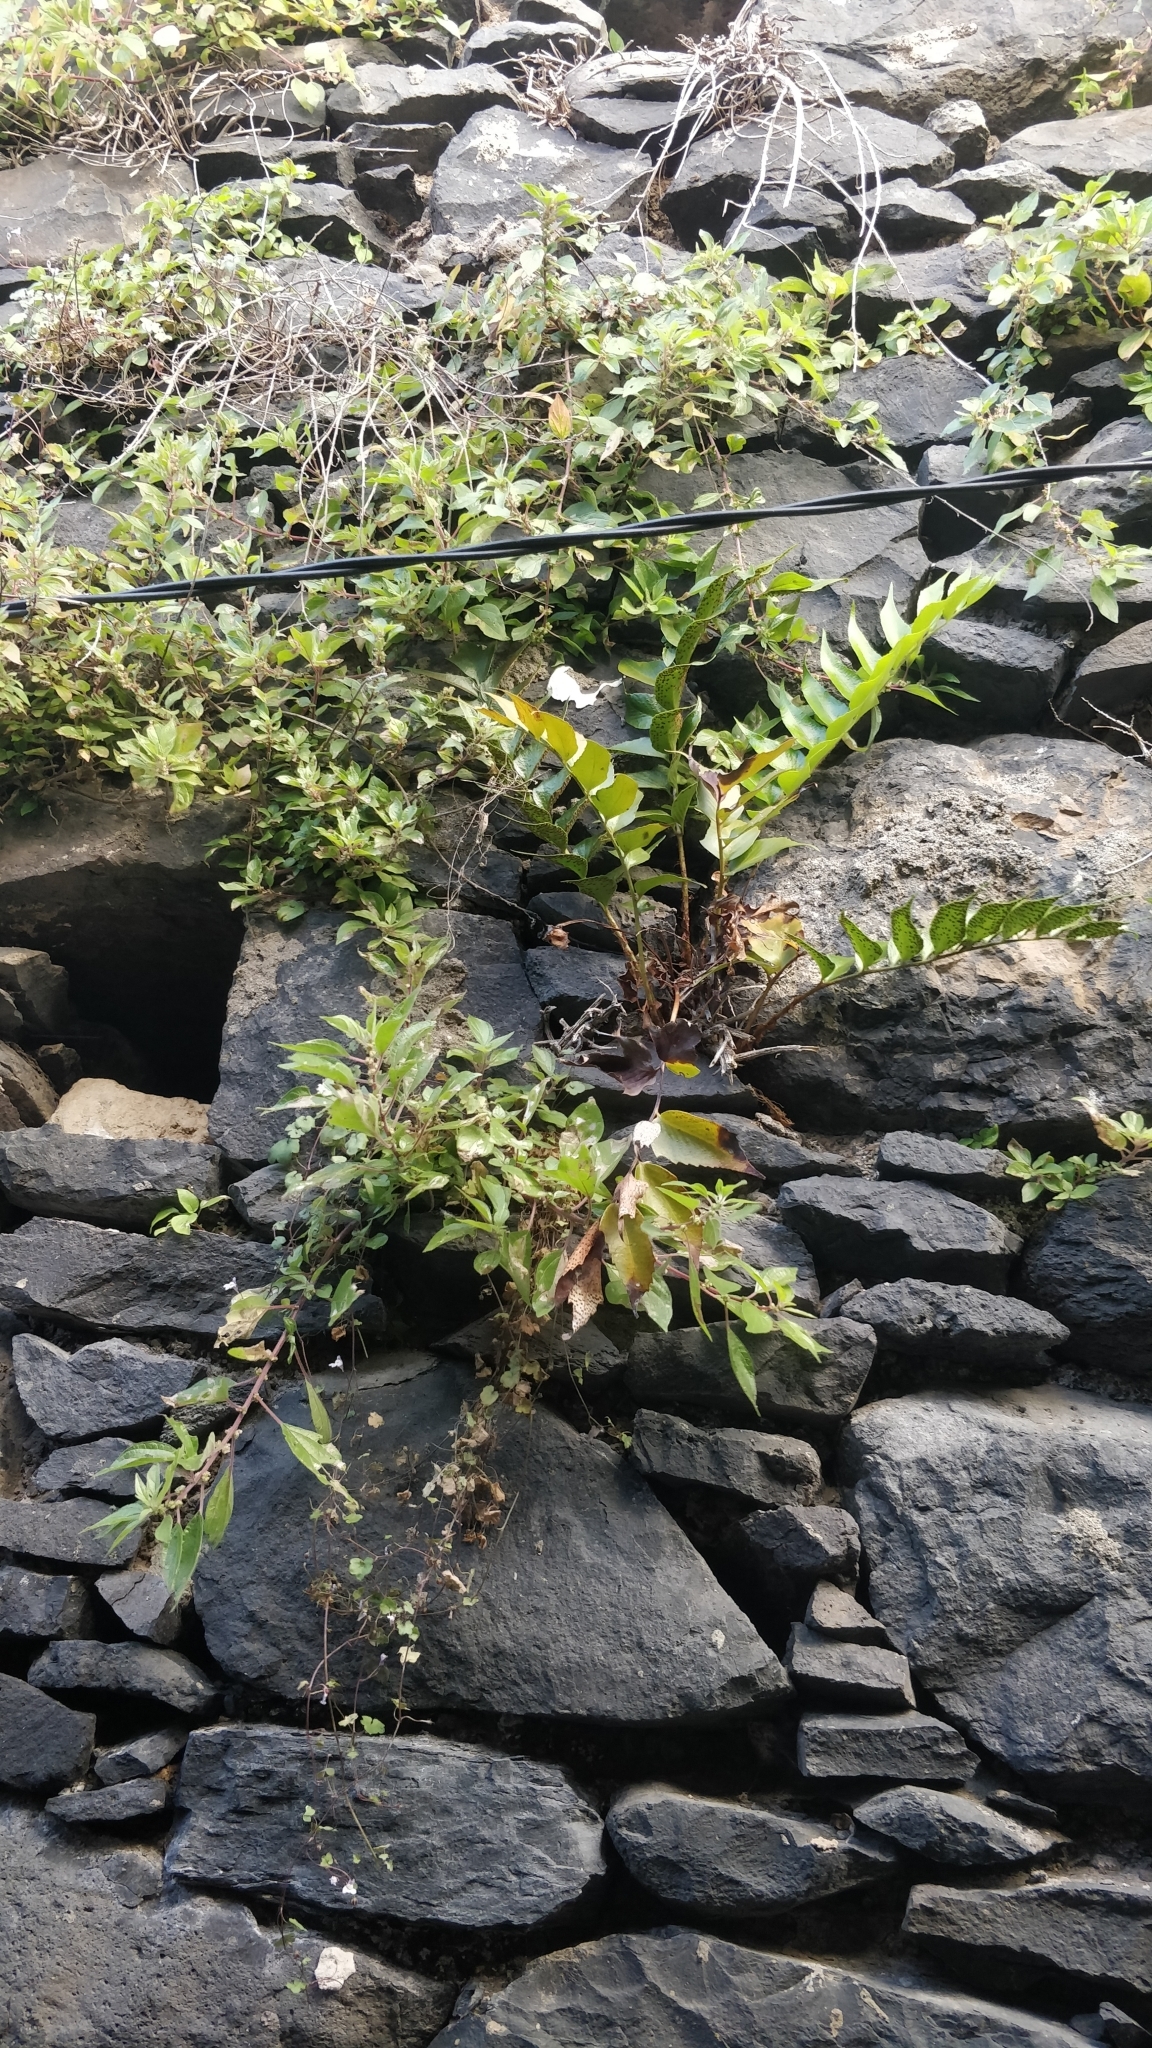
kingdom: Plantae
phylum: Tracheophyta
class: Polypodiopsida
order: Polypodiales
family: Dryopteridaceae
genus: Cyrtomium
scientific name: Cyrtomium falcatum
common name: House holly-fern
